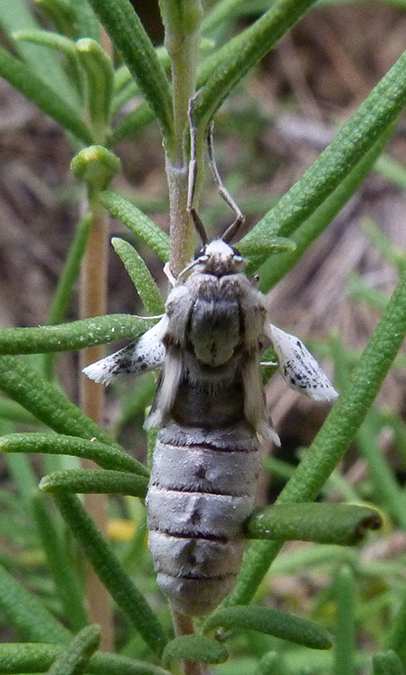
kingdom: Animalia
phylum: Arthropoda
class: Insecta
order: Lepidoptera
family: Geometridae
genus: Agriopis
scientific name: Agriopis marginaria
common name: Dotted border
